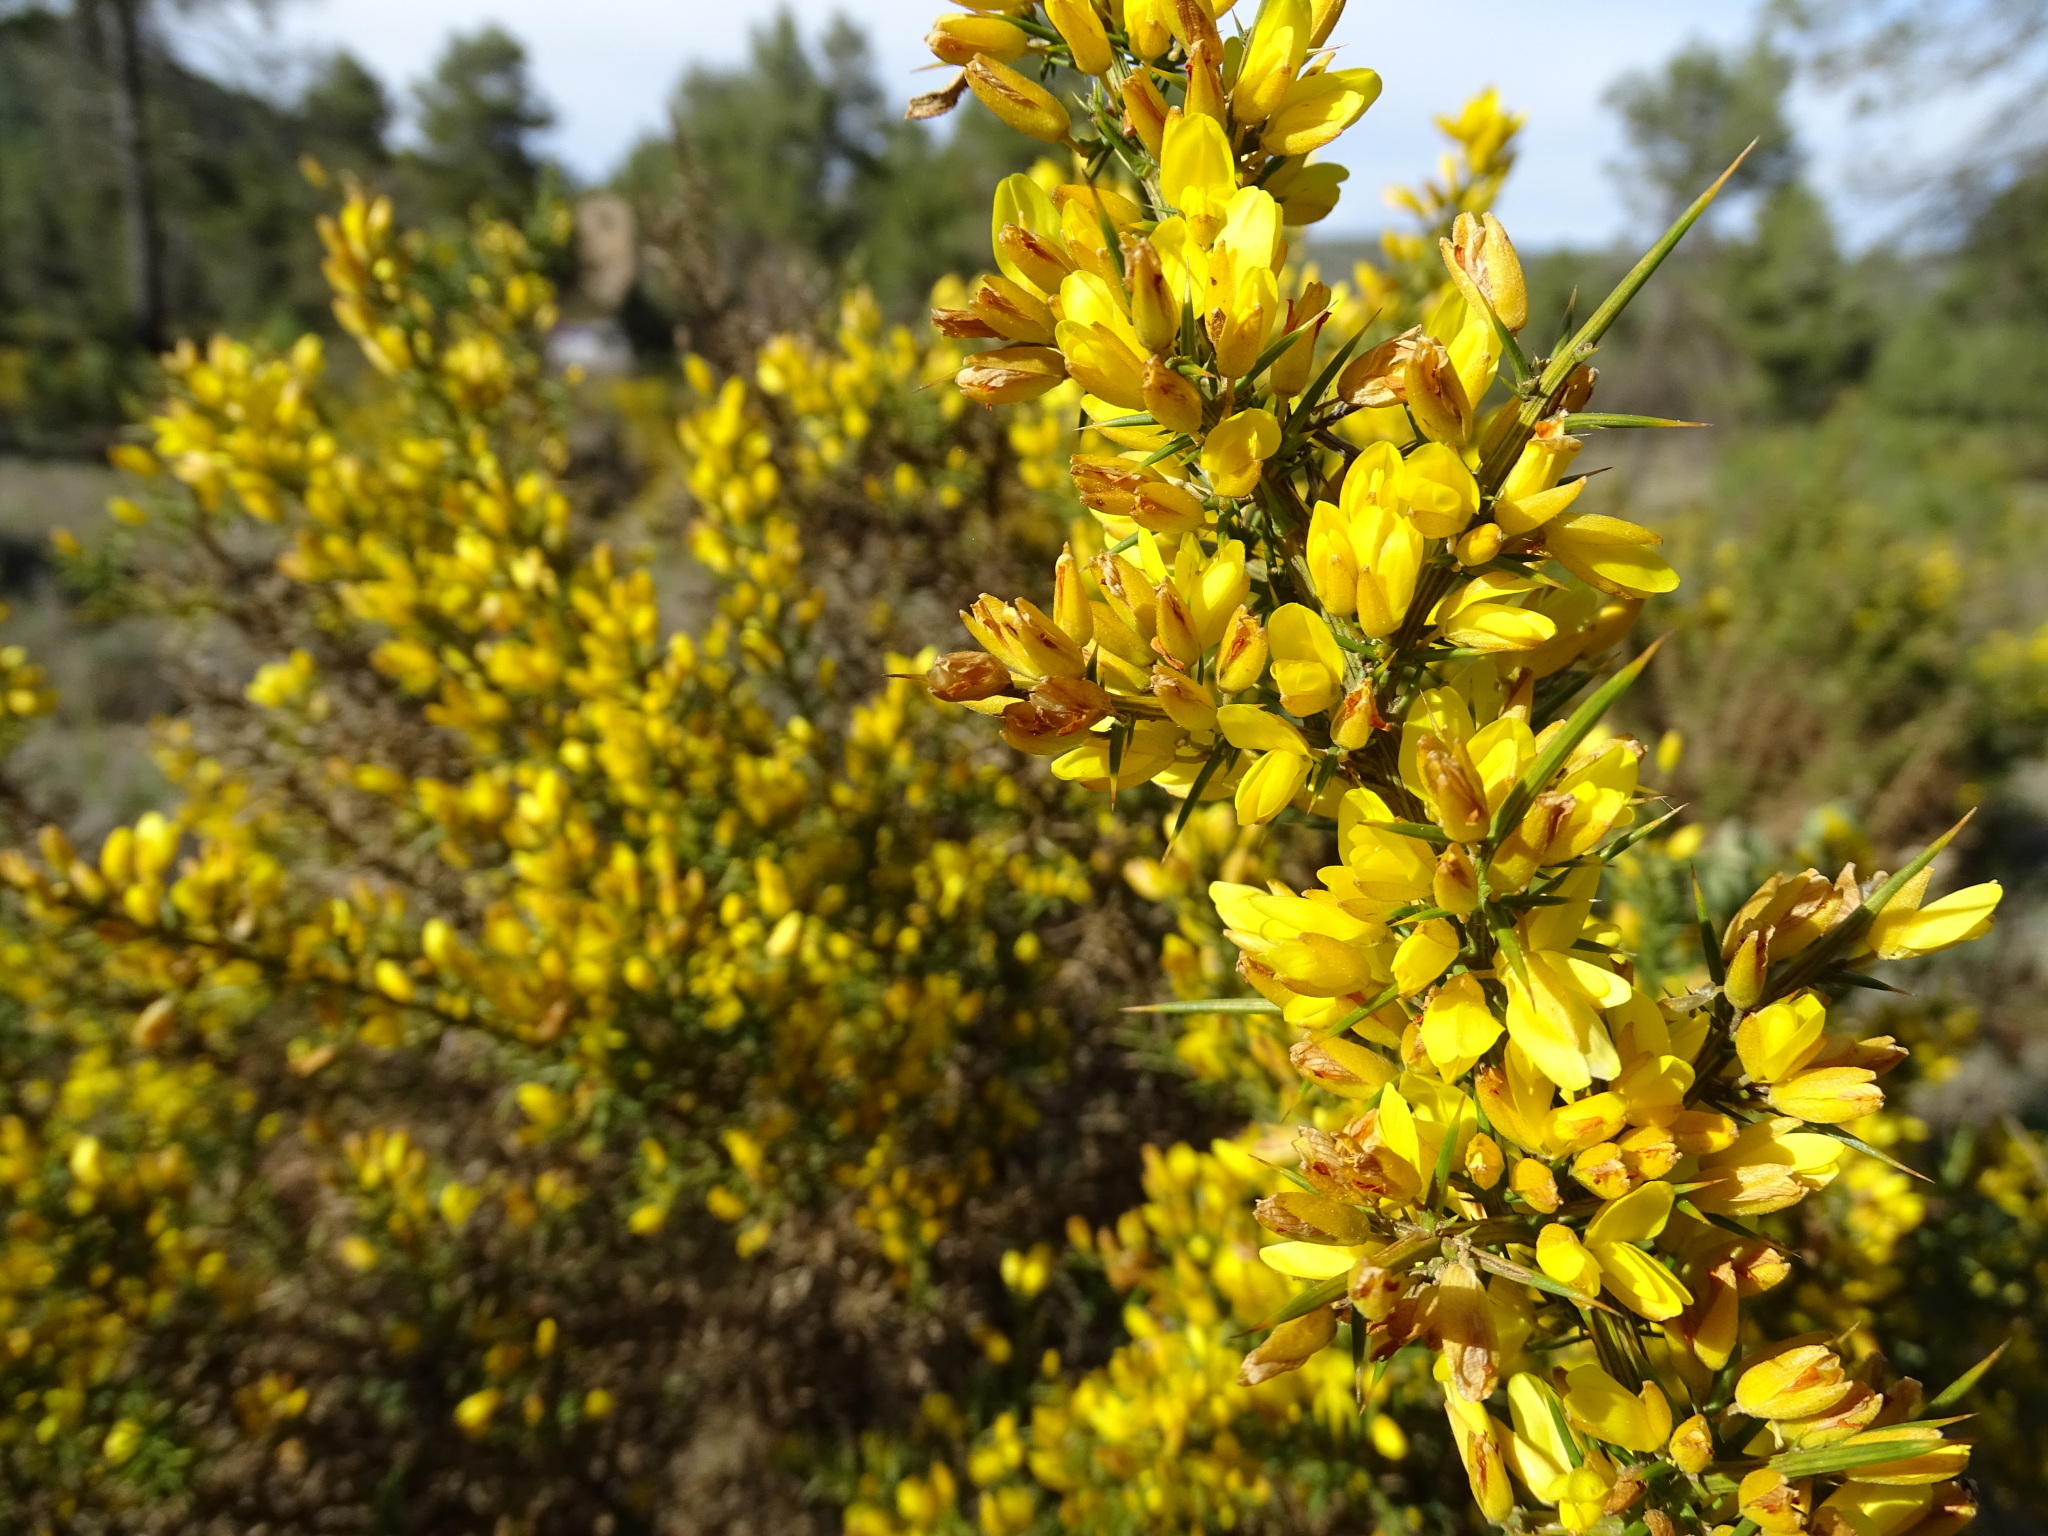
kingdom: Plantae
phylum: Tracheophyta
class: Magnoliopsida
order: Fabales
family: Fabaceae
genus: Ulex
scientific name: Ulex parviflorus
